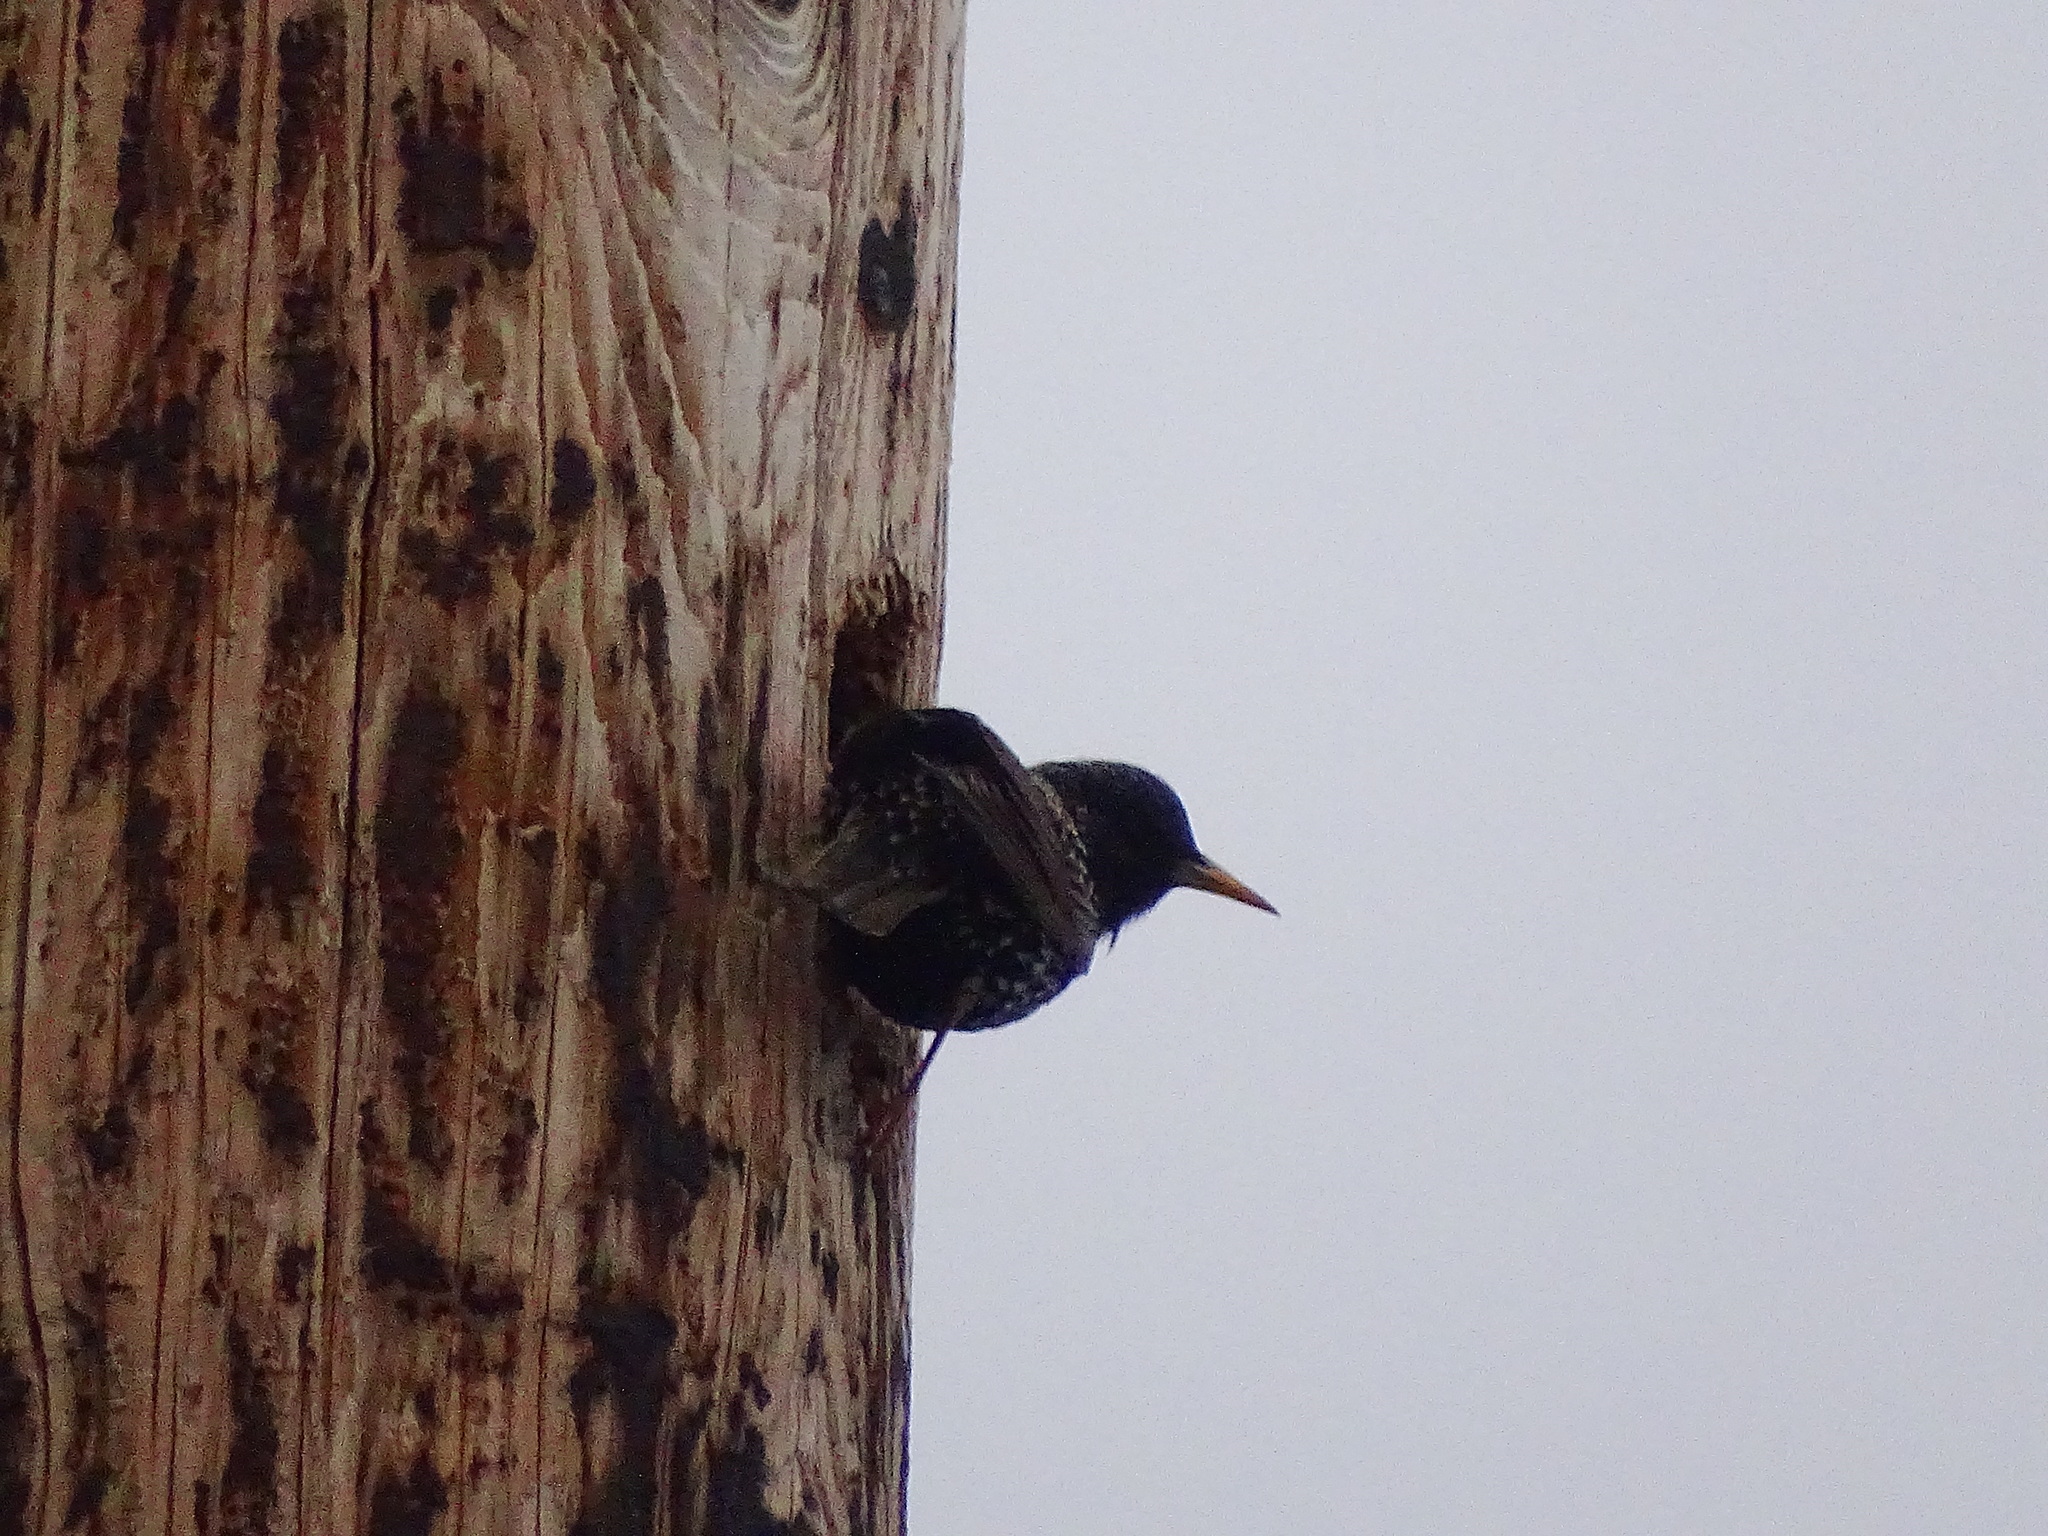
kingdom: Animalia
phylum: Chordata
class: Aves
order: Passeriformes
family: Sturnidae
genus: Sturnus
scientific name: Sturnus vulgaris
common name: Common starling
